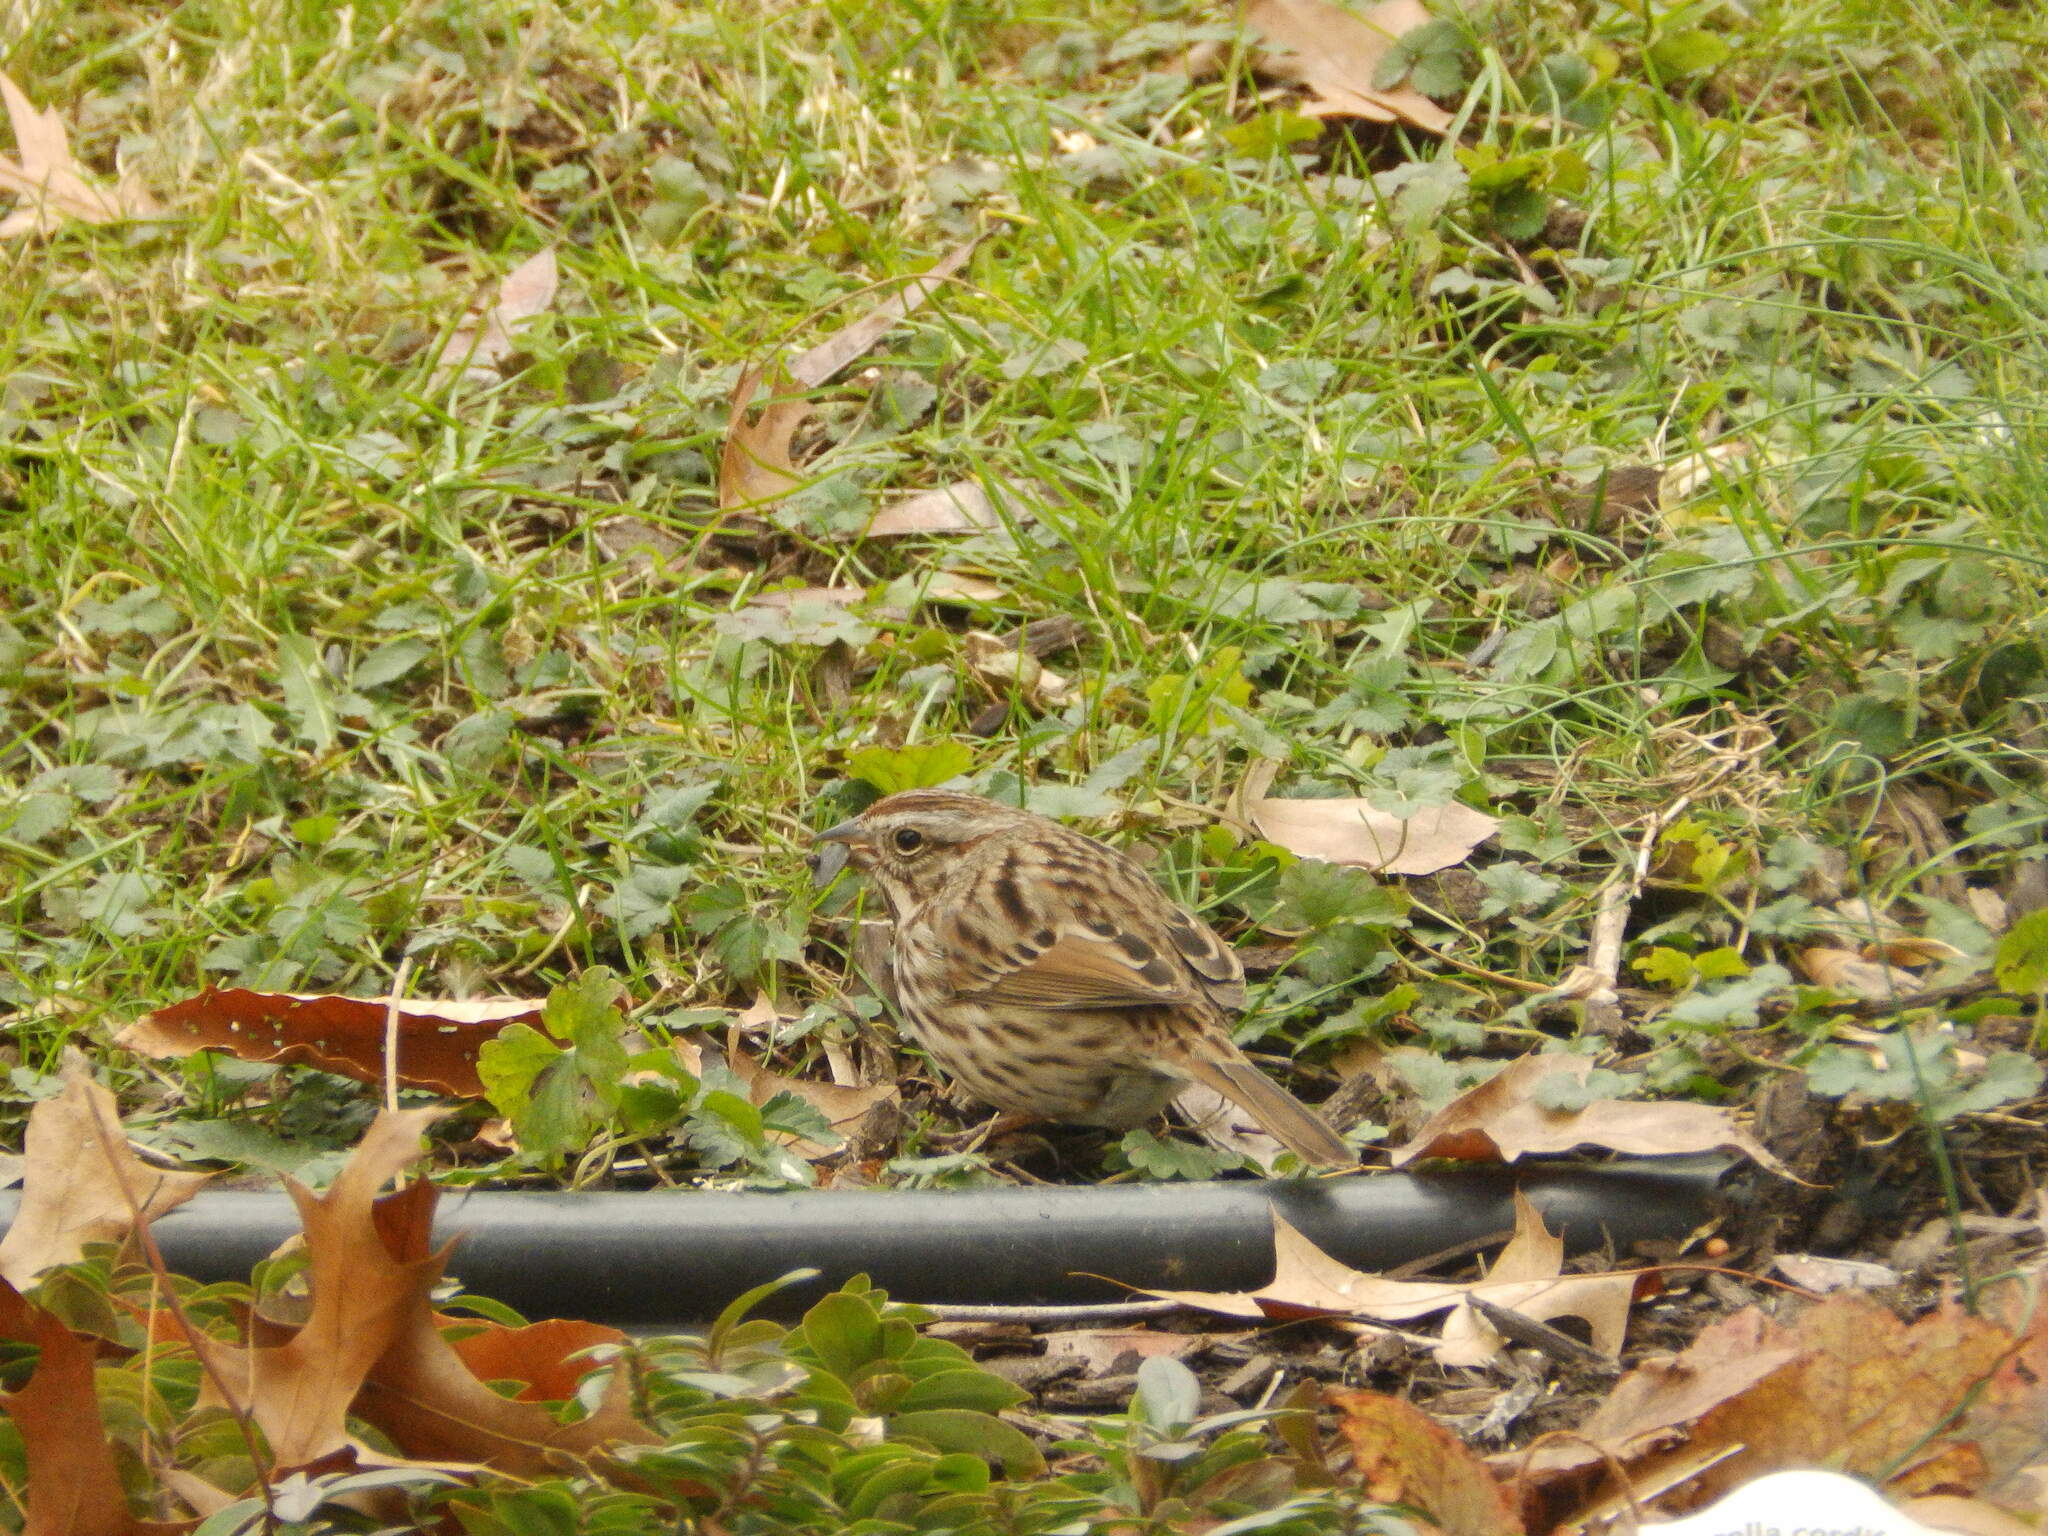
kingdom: Animalia
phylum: Chordata
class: Aves
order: Passeriformes
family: Passerellidae
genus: Melospiza
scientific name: Melospiza melodia
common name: Song sparrow
